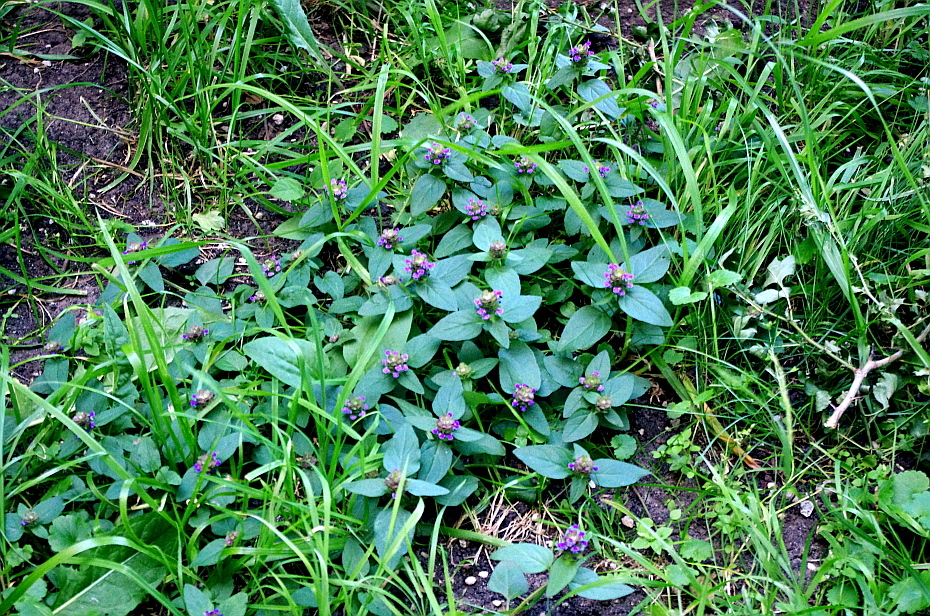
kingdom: Plantae
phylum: Tracheophyta
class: Magnoliopsida
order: Lamiales
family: Lamiaceae
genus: Prunella
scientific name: Prunella vulgaris
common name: Heal-all
